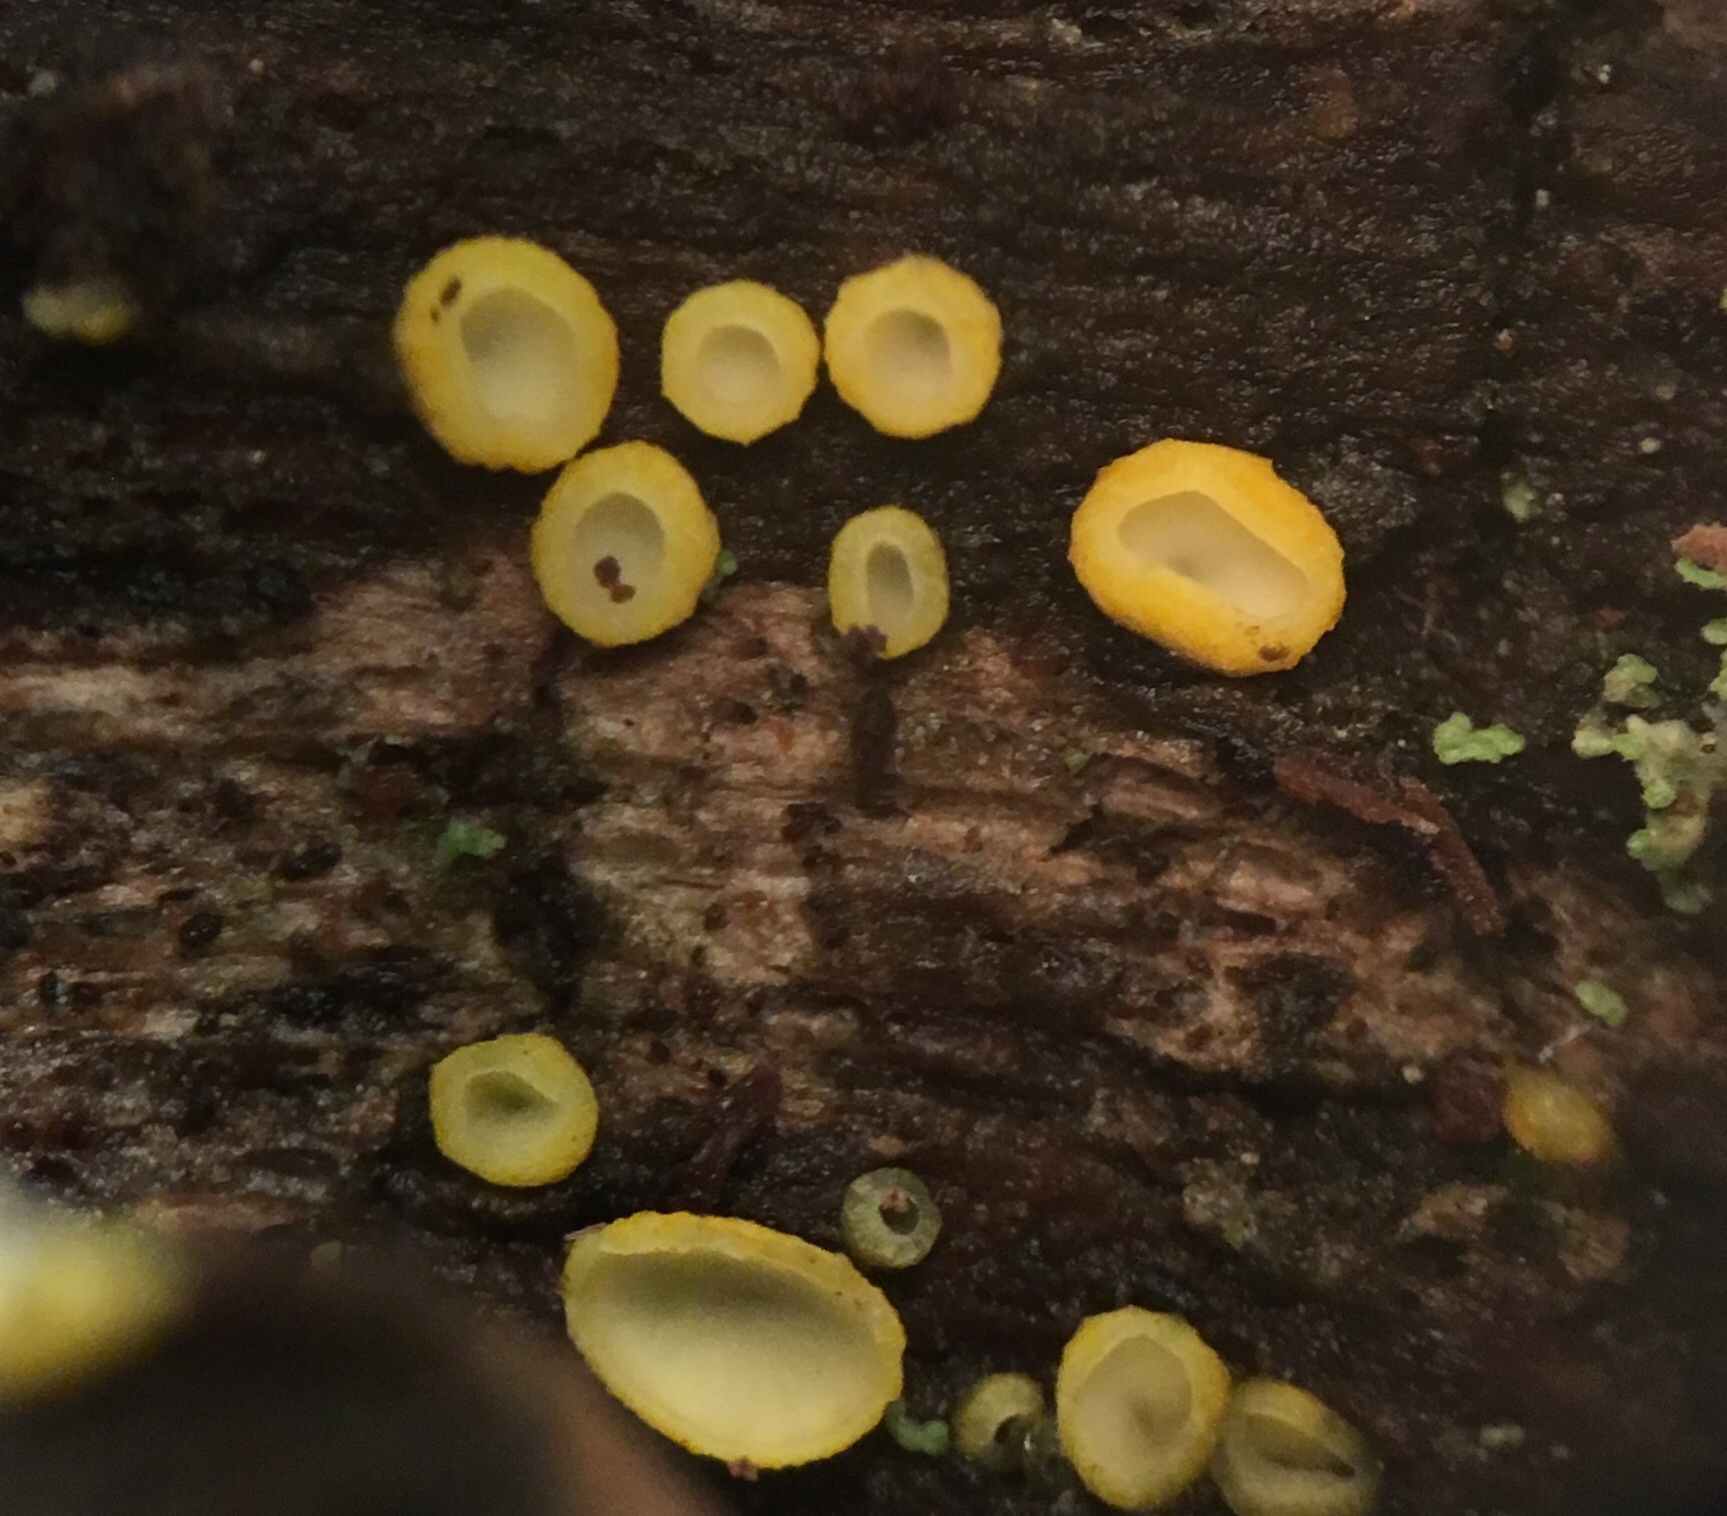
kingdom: Fungi
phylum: Ascomycota
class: Leotiomycetes
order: Helotiales
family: Chlorospleniaceae
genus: Chlorosplenium
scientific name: Chlorosplenium chlora
